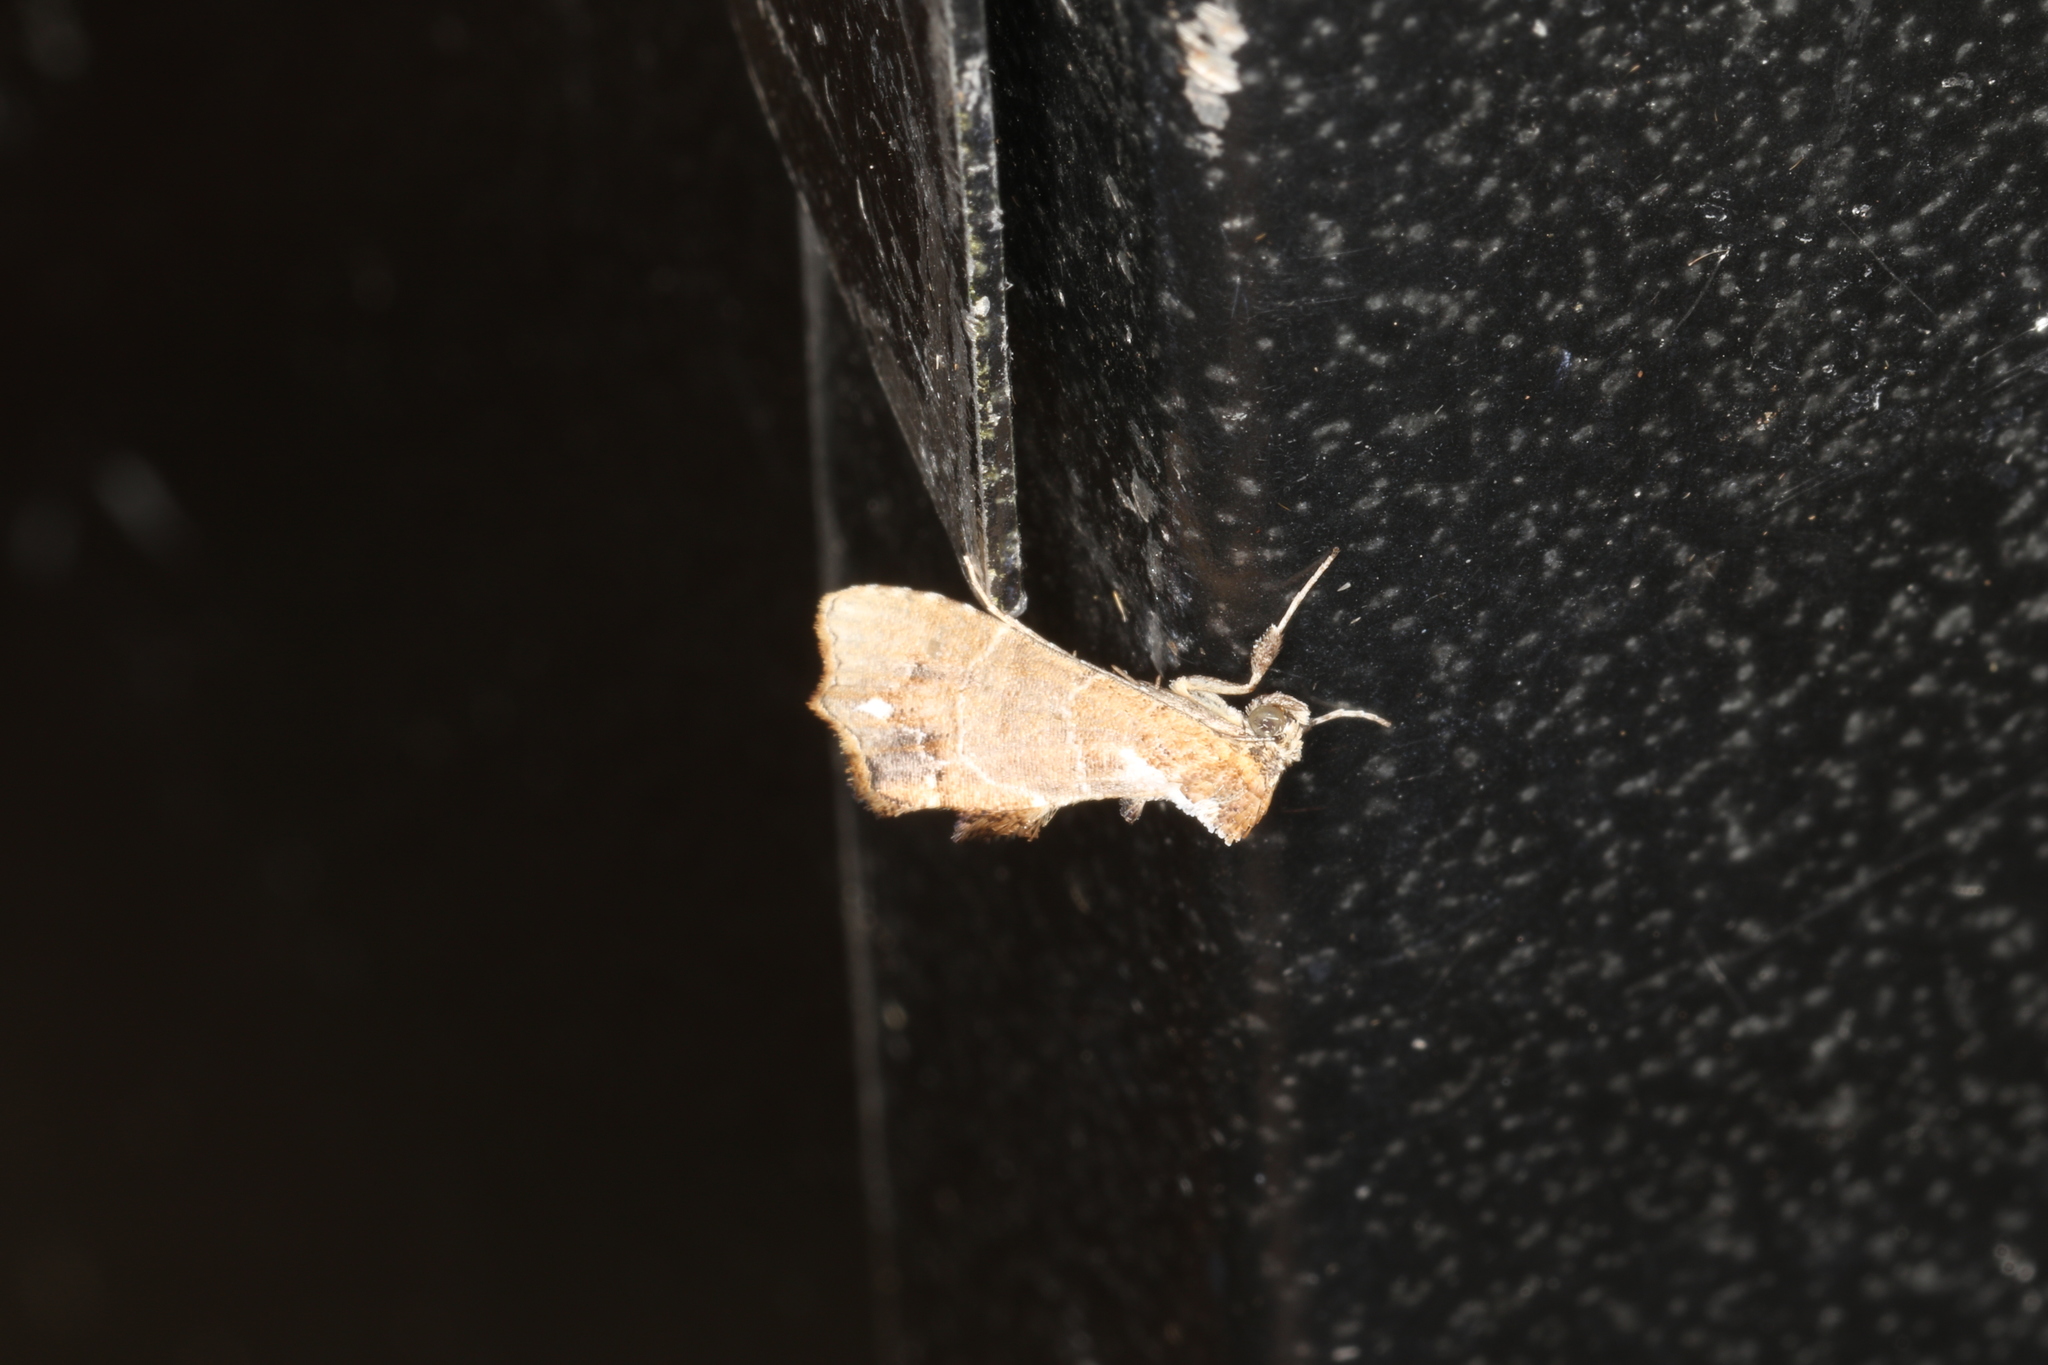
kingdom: Animalia
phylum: Arthropoda
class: Insecta
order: Lepidoptera
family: Erebidae
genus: Arrade
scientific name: Arrade leucocosmalis
